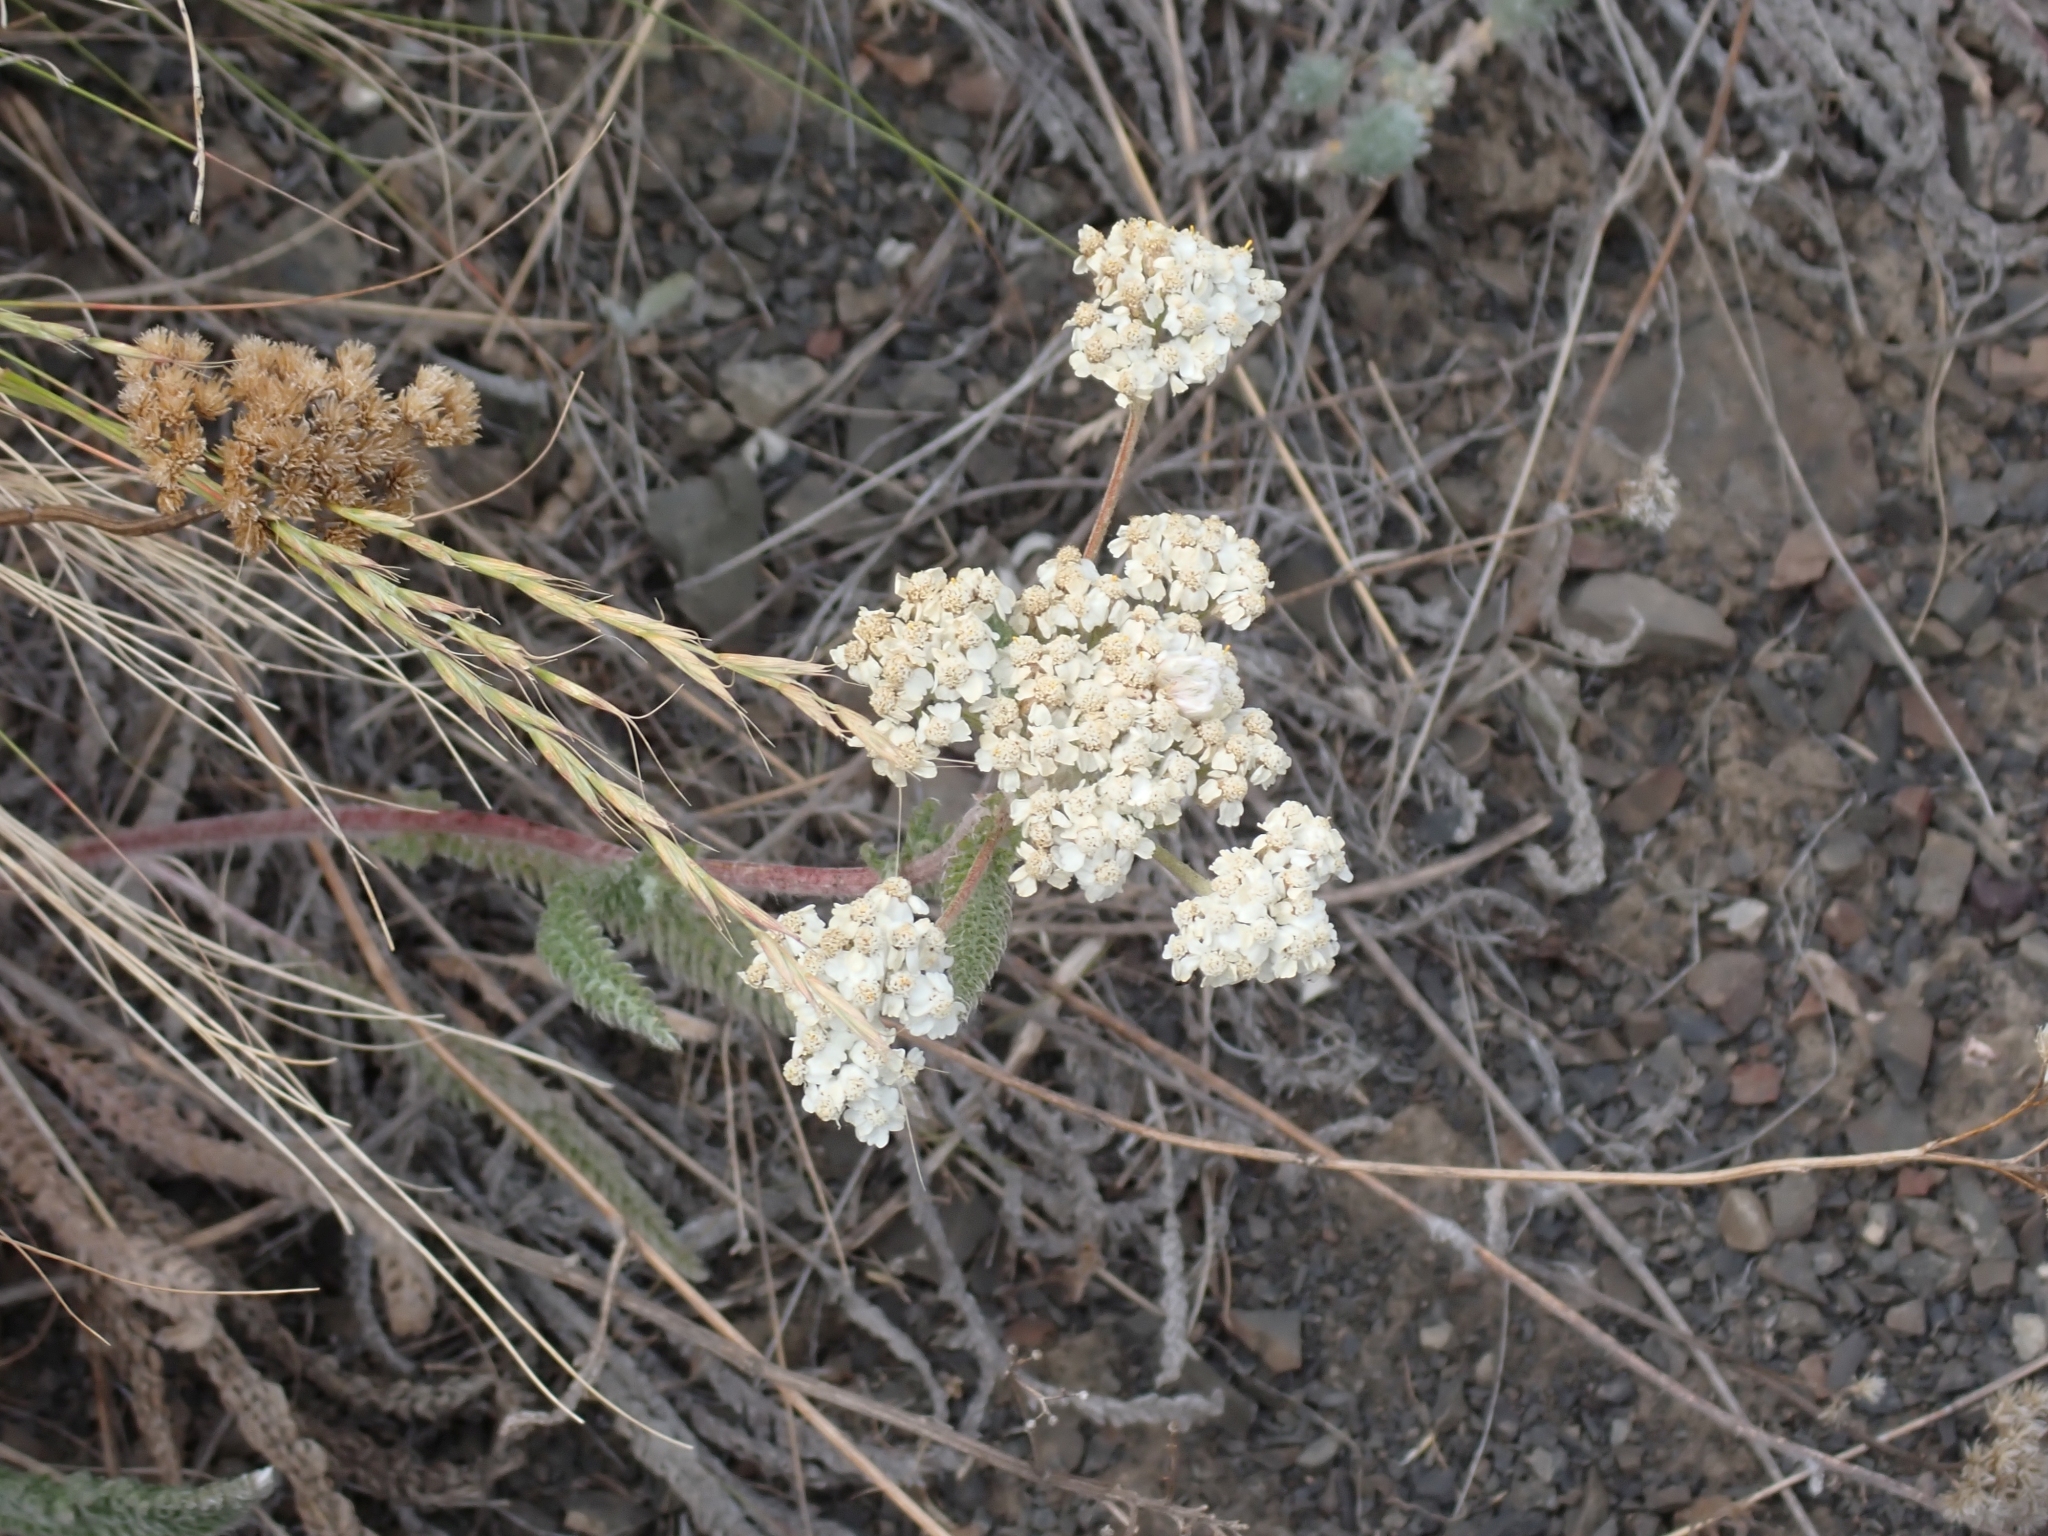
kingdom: Plantae
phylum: Tracheophyta
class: Magnoliopsida
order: Asterales
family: Asteraceae
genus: Achillea
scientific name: Achillea millefolium
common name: Yarrow
